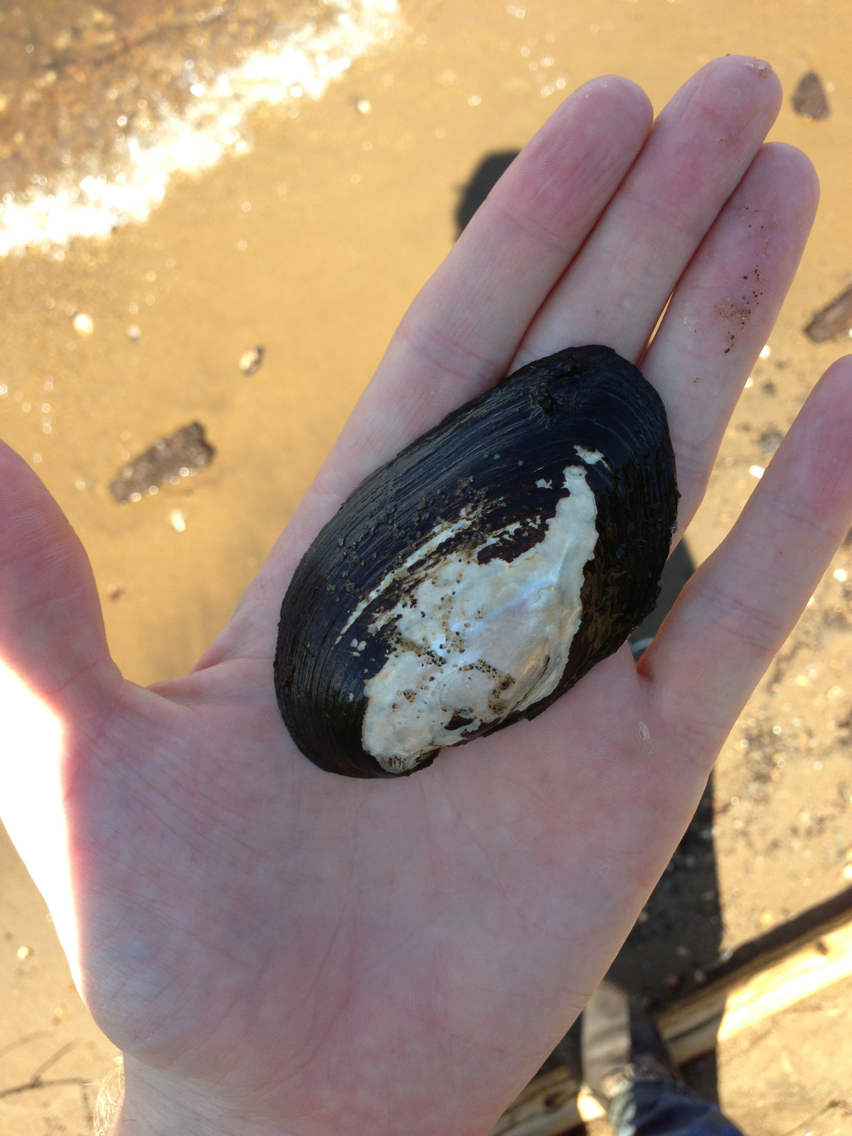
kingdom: Animalia
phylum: Mollusca
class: Bivalvia
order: Unionida
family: Unionidae
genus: Elliptio
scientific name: Elliptio complanata
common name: Eastern elliptio
